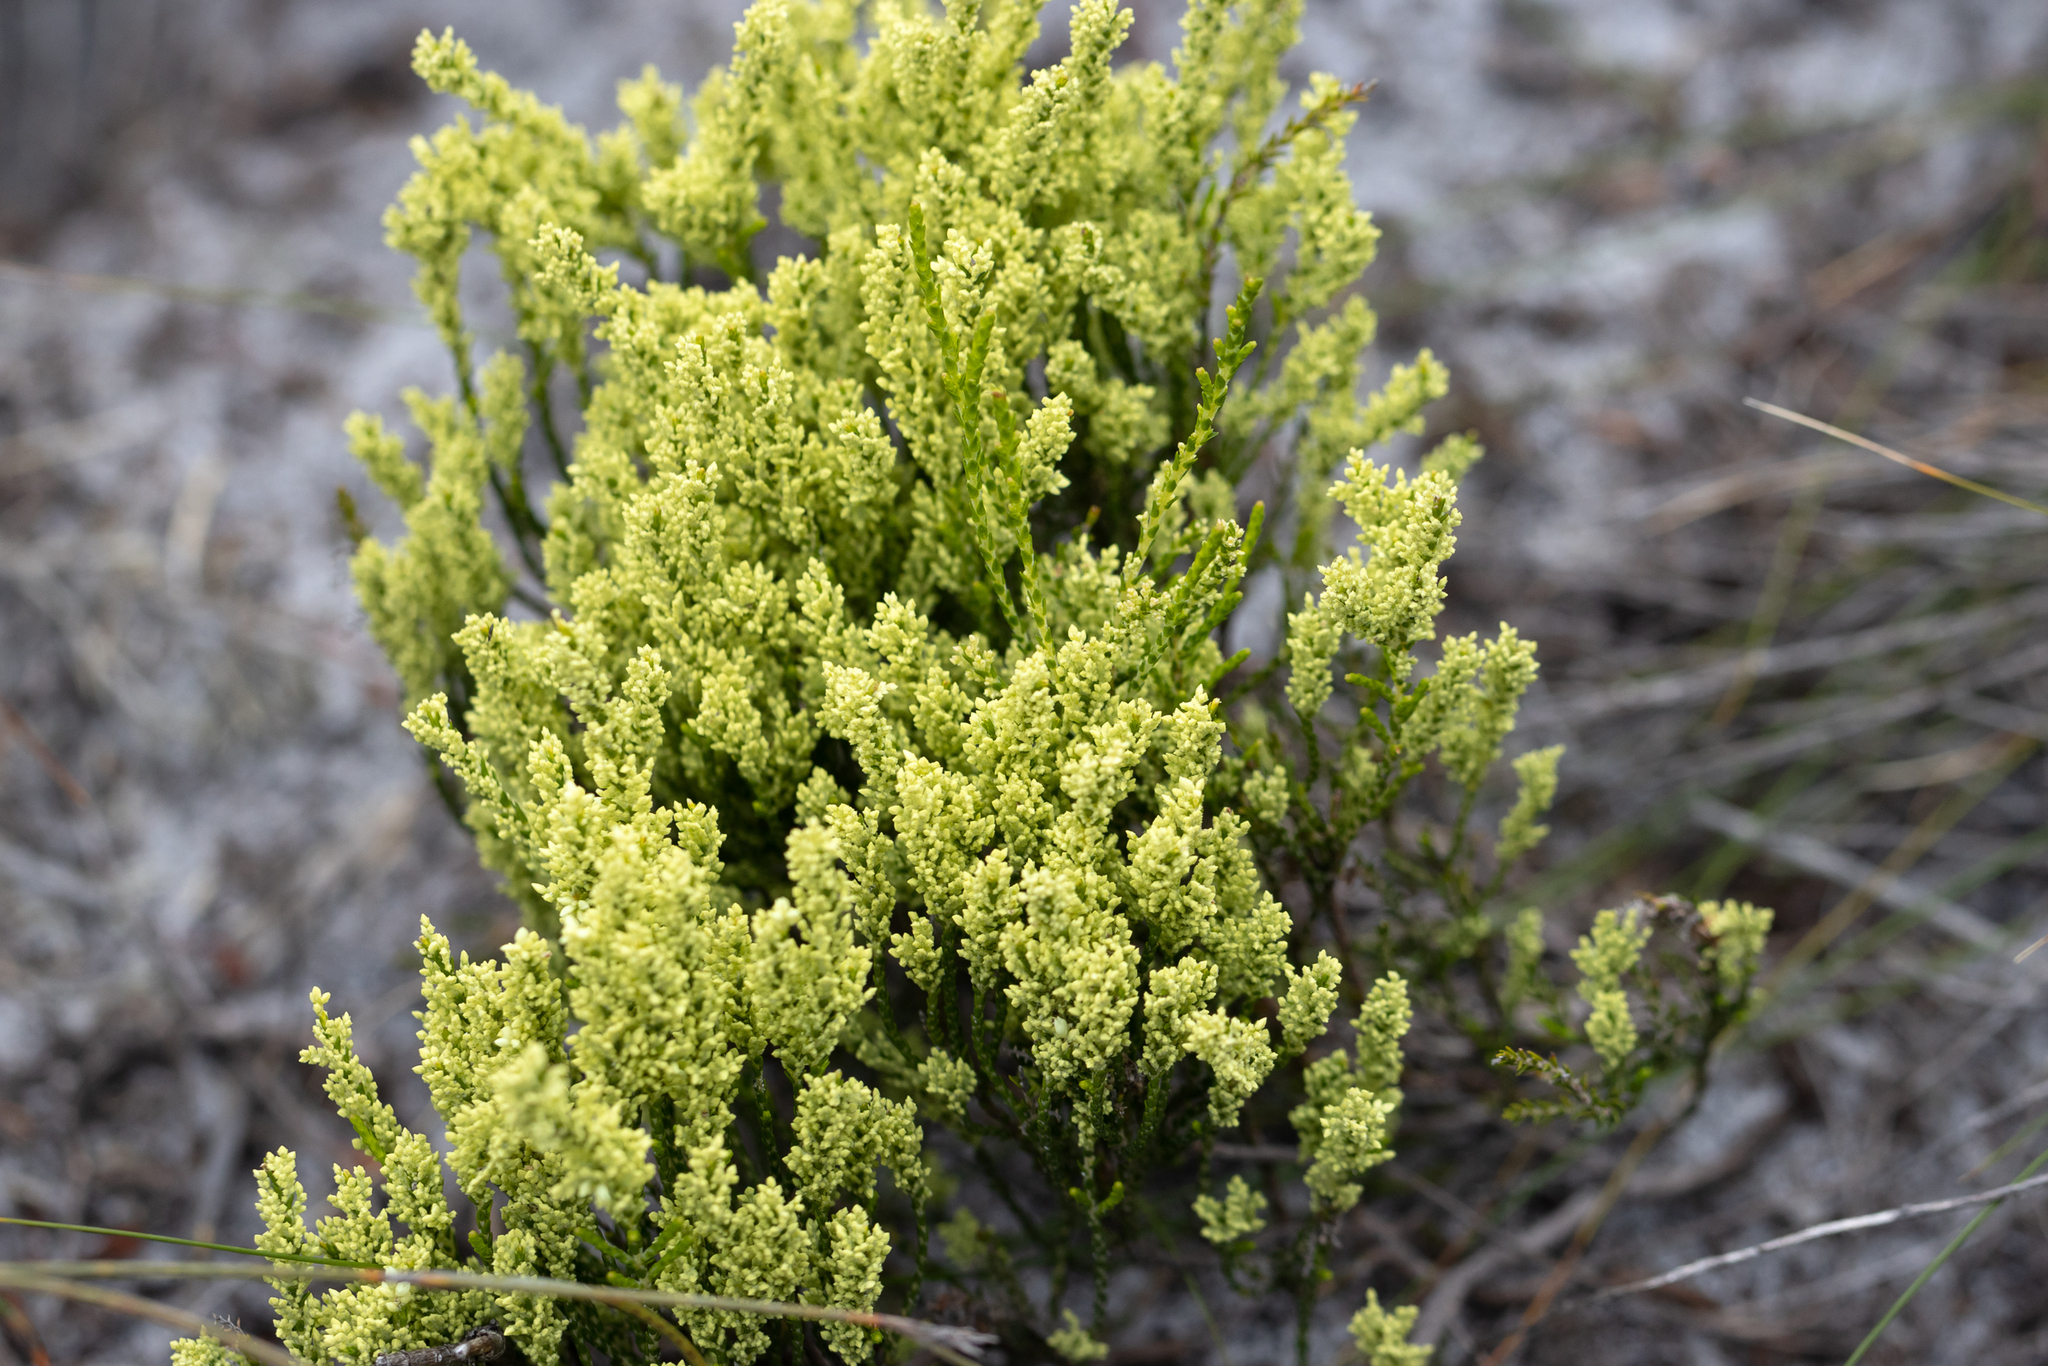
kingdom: Plantae
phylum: Tracheophyta
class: Magnoliopsida
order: Ericales
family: Ericaceae
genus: Oligarrhena
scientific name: Oligarrhena micrantha
